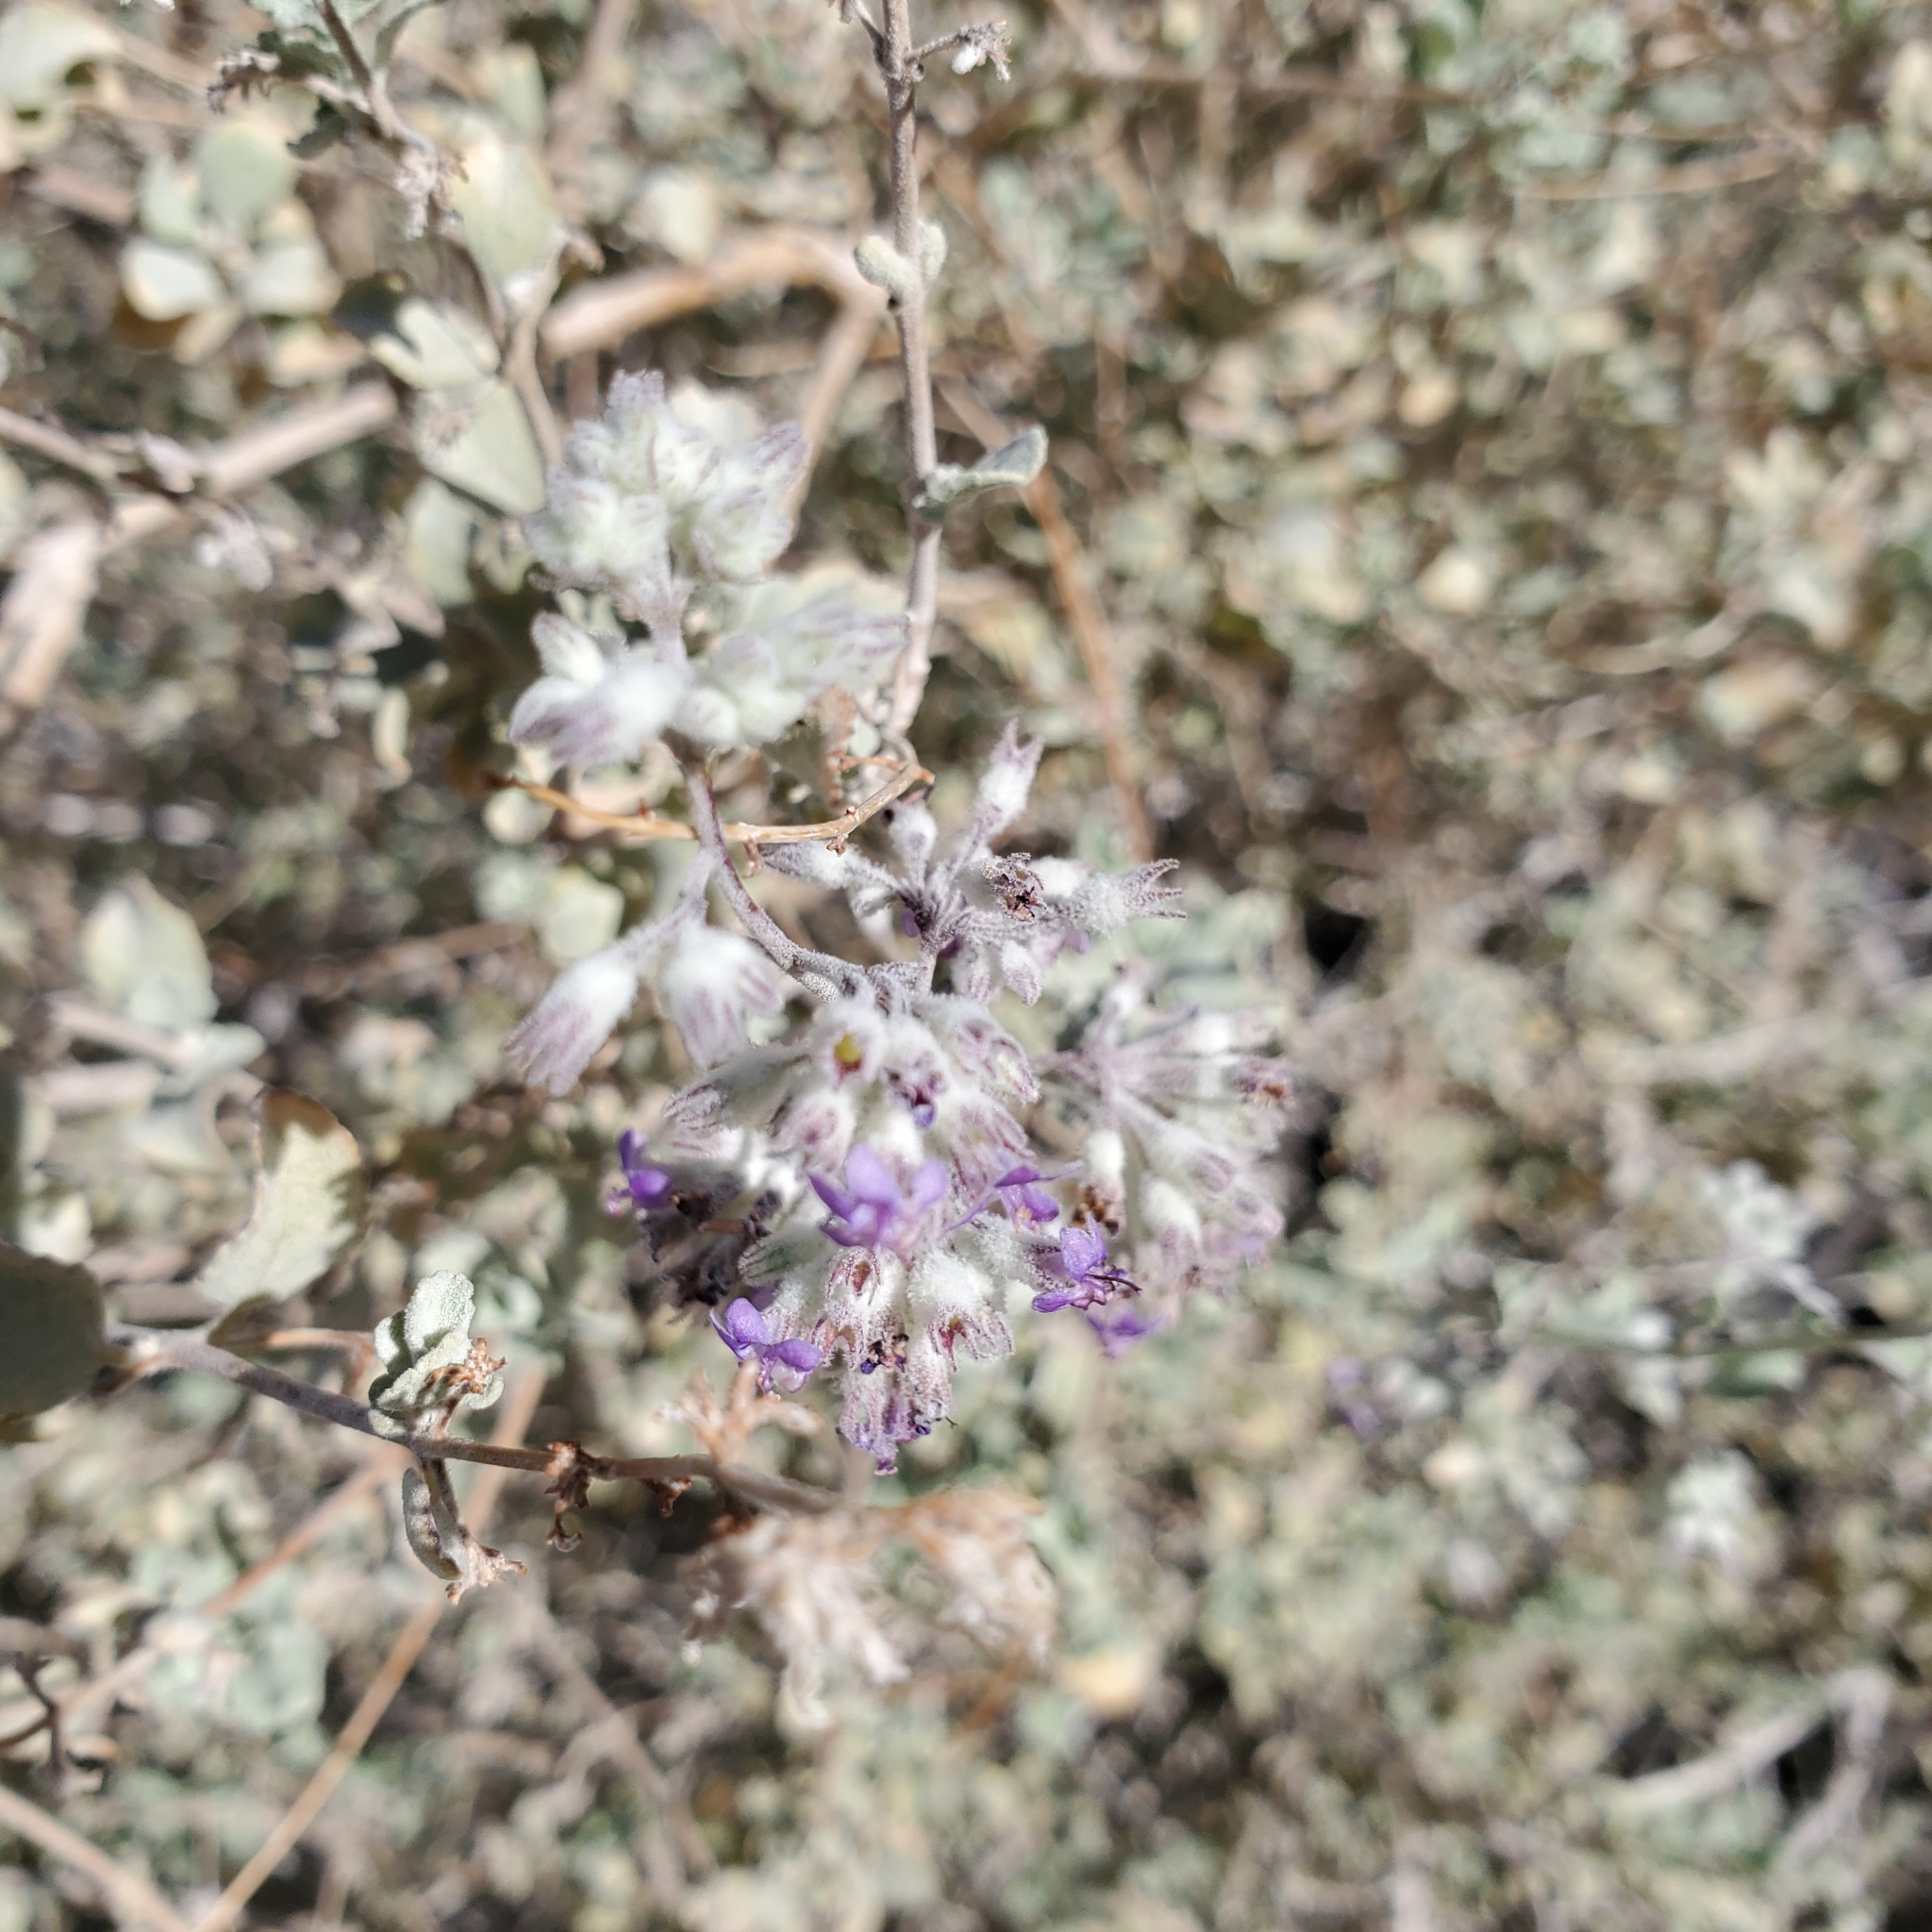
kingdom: Plantae
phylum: Tracheophyta
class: Magnoliopsida
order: Lamiales
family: Lamiaceae
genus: Condea
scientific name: Condea emoryi
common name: Chia
